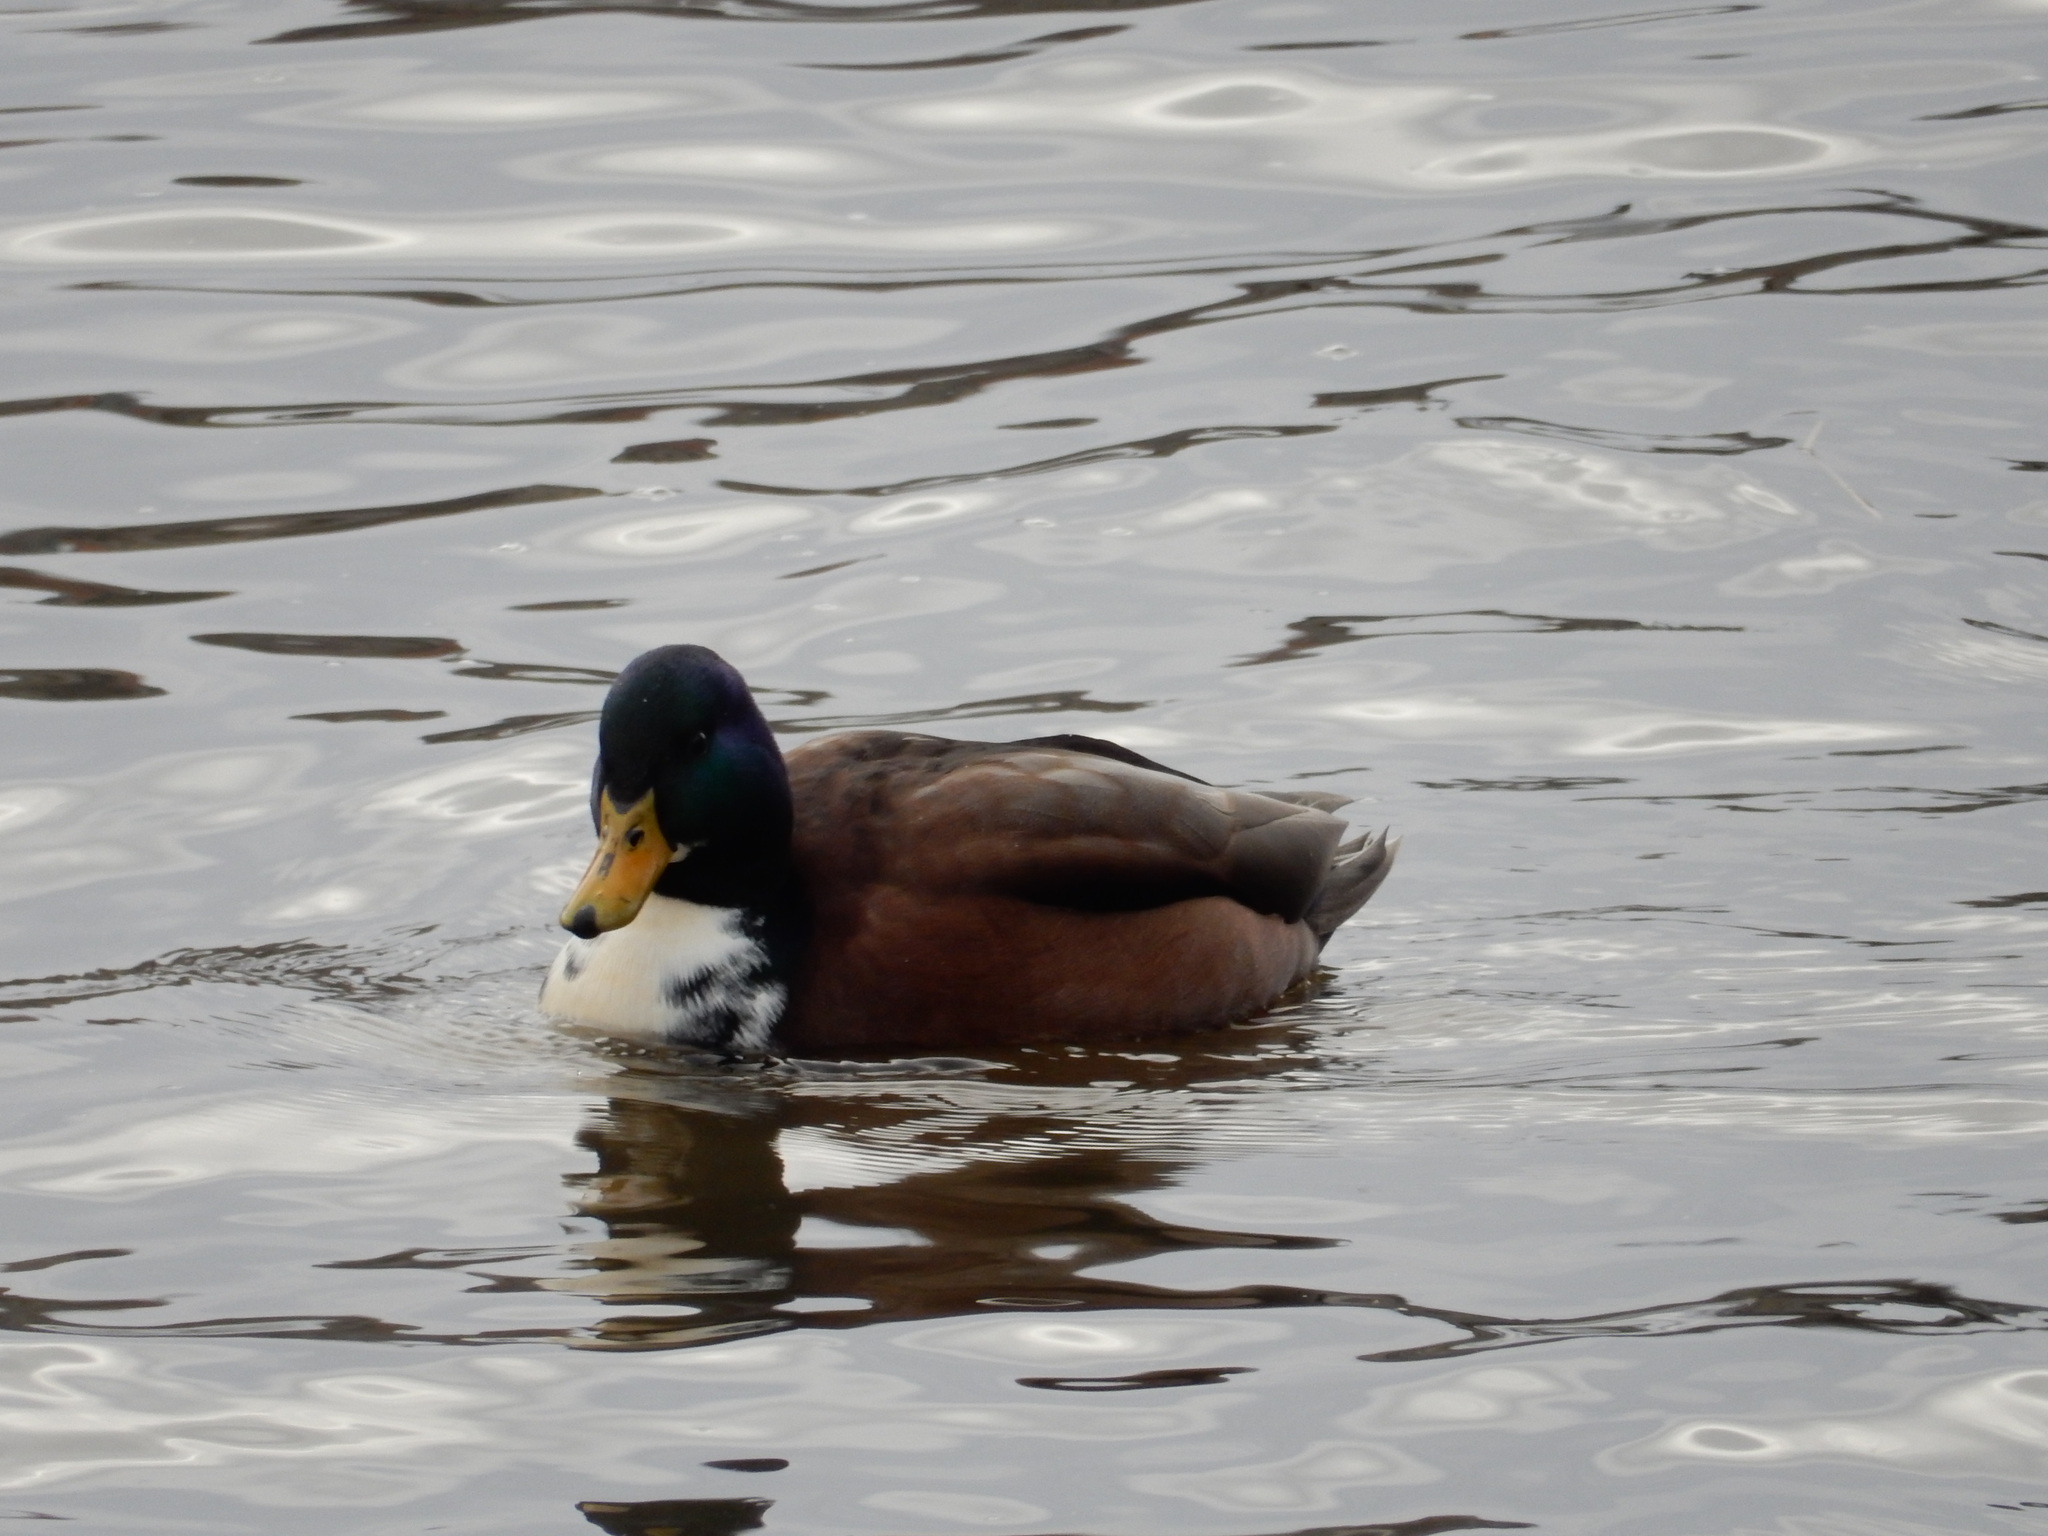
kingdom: Animalia
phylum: Chordata
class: Aves
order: Anseriformes
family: Anatidae
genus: Anas
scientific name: Anas platyrhynchos
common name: Mallard
